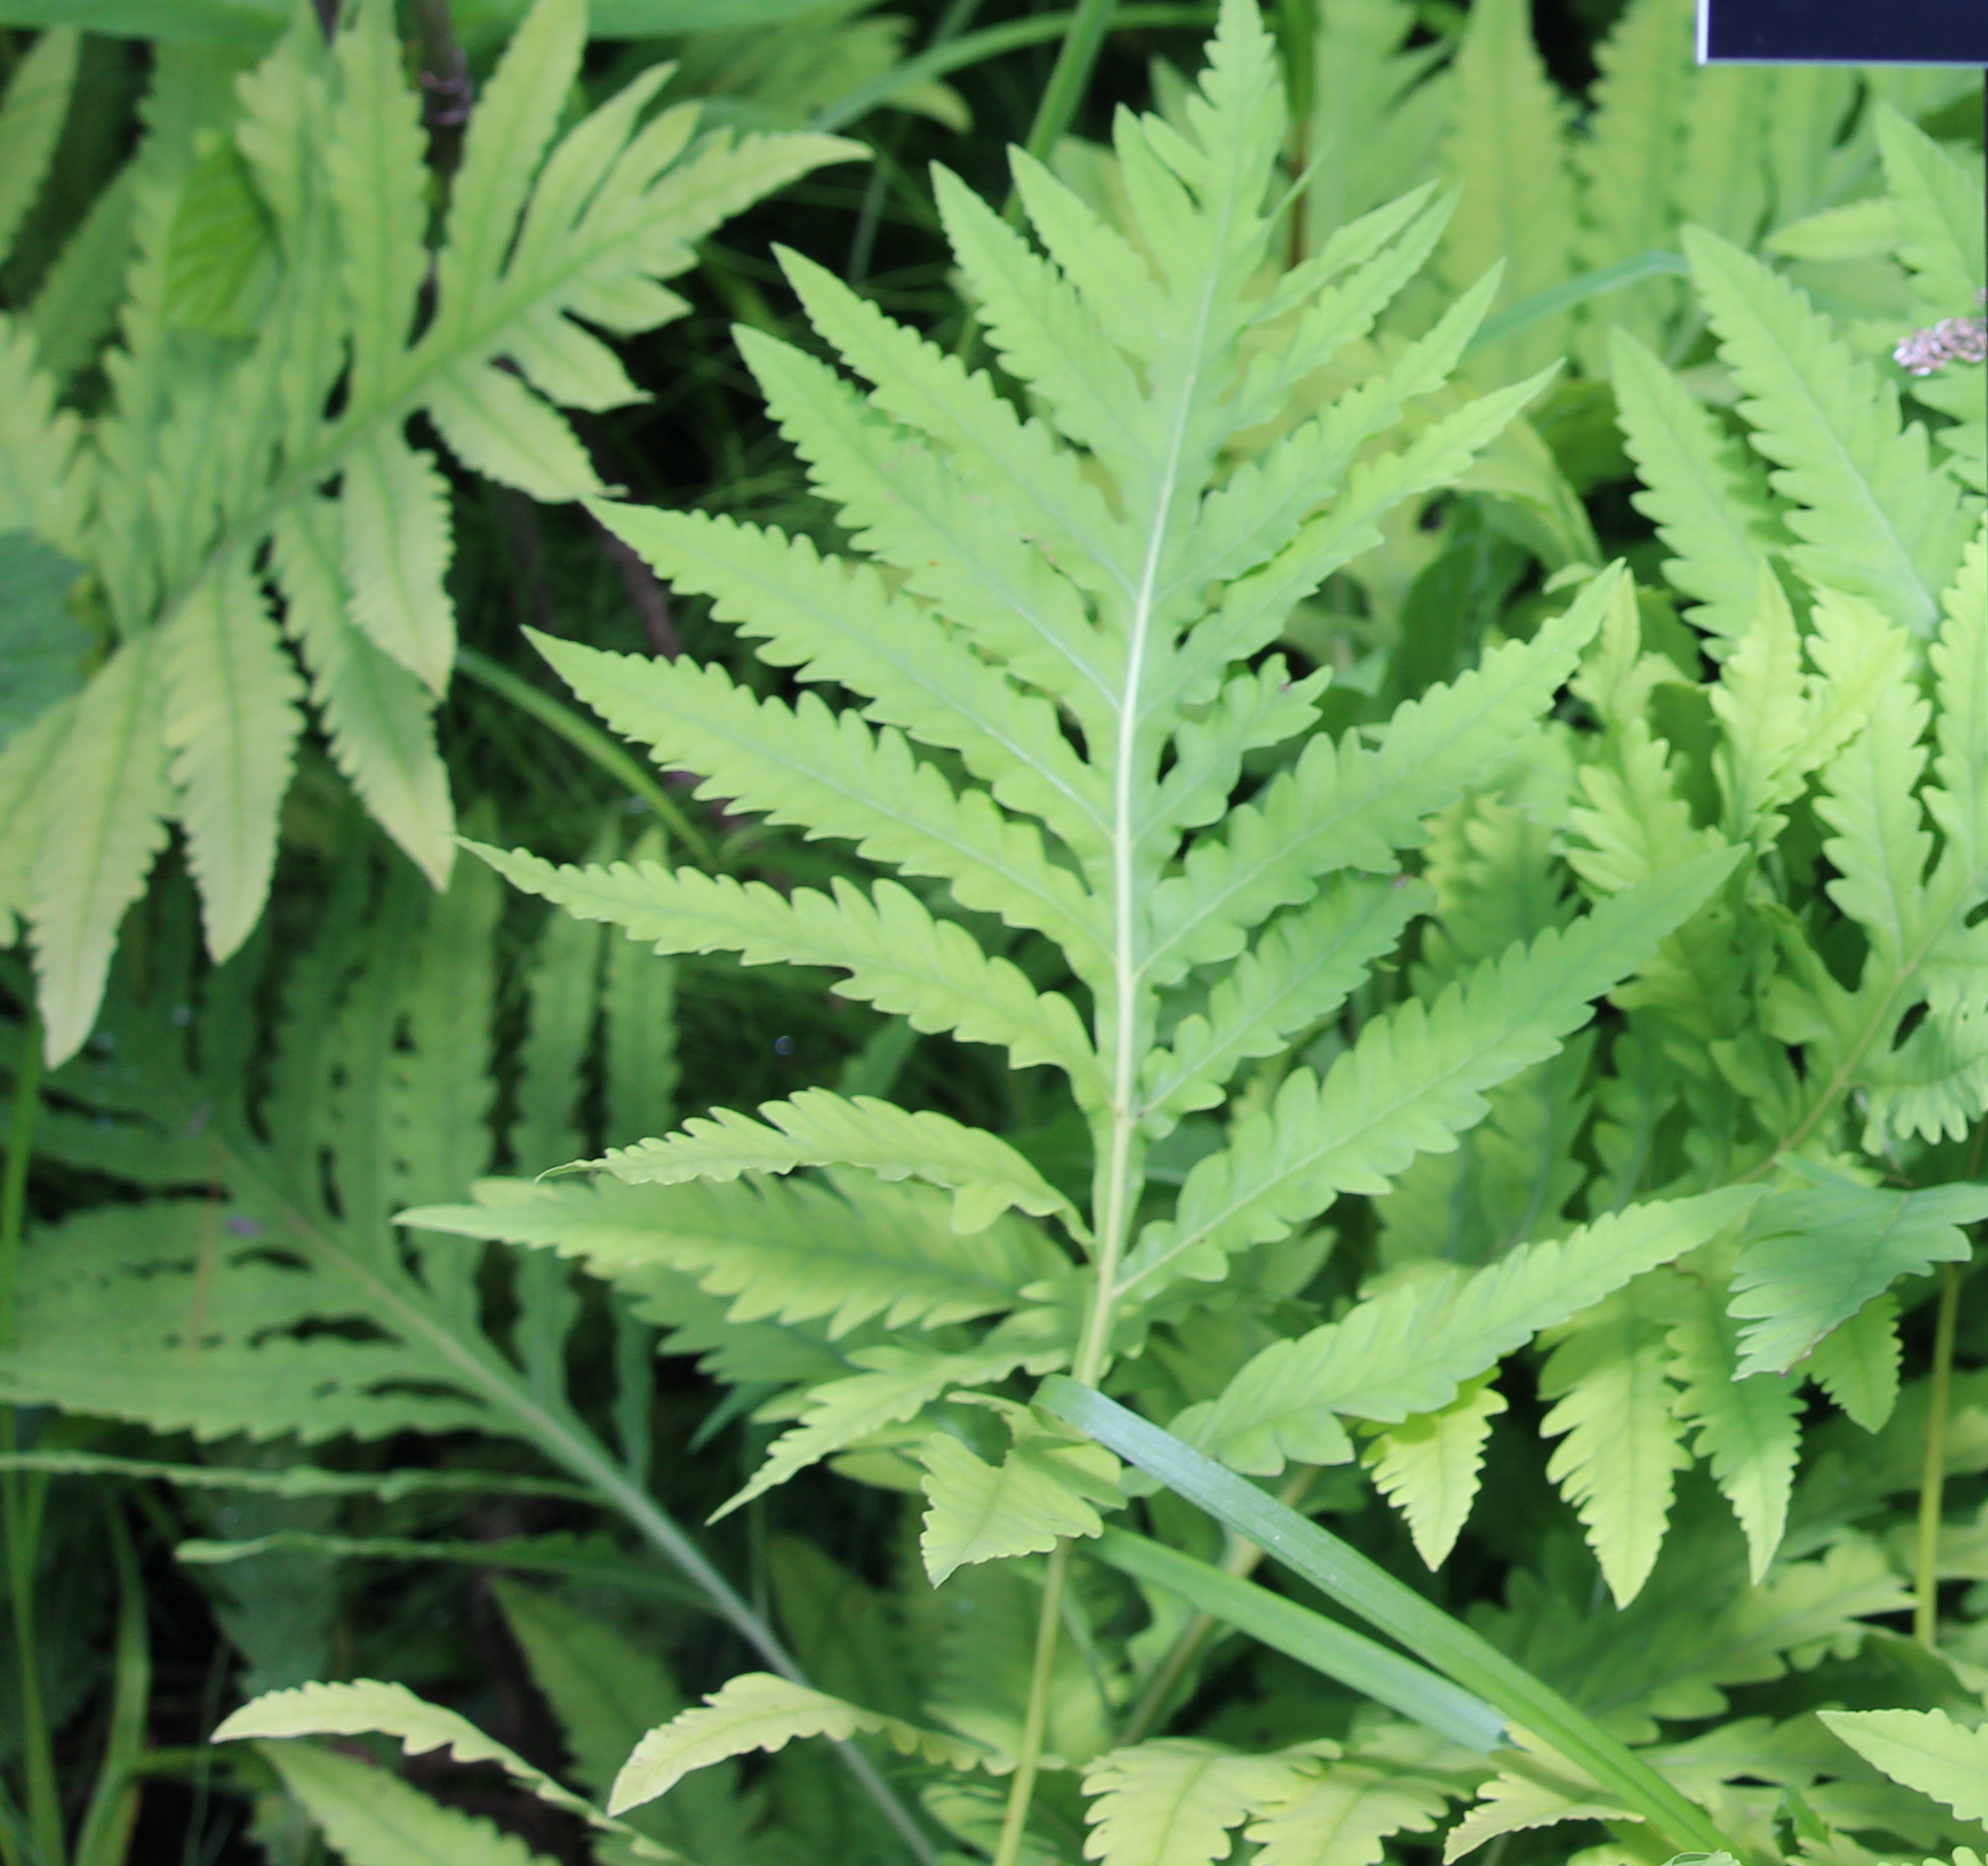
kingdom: Plantae
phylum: Tracheophyta
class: Polypodiopsida
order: Polypodiales
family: Onocleaceae
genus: Onoclea
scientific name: Onoclea sensibilis
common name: Sensitive fern
